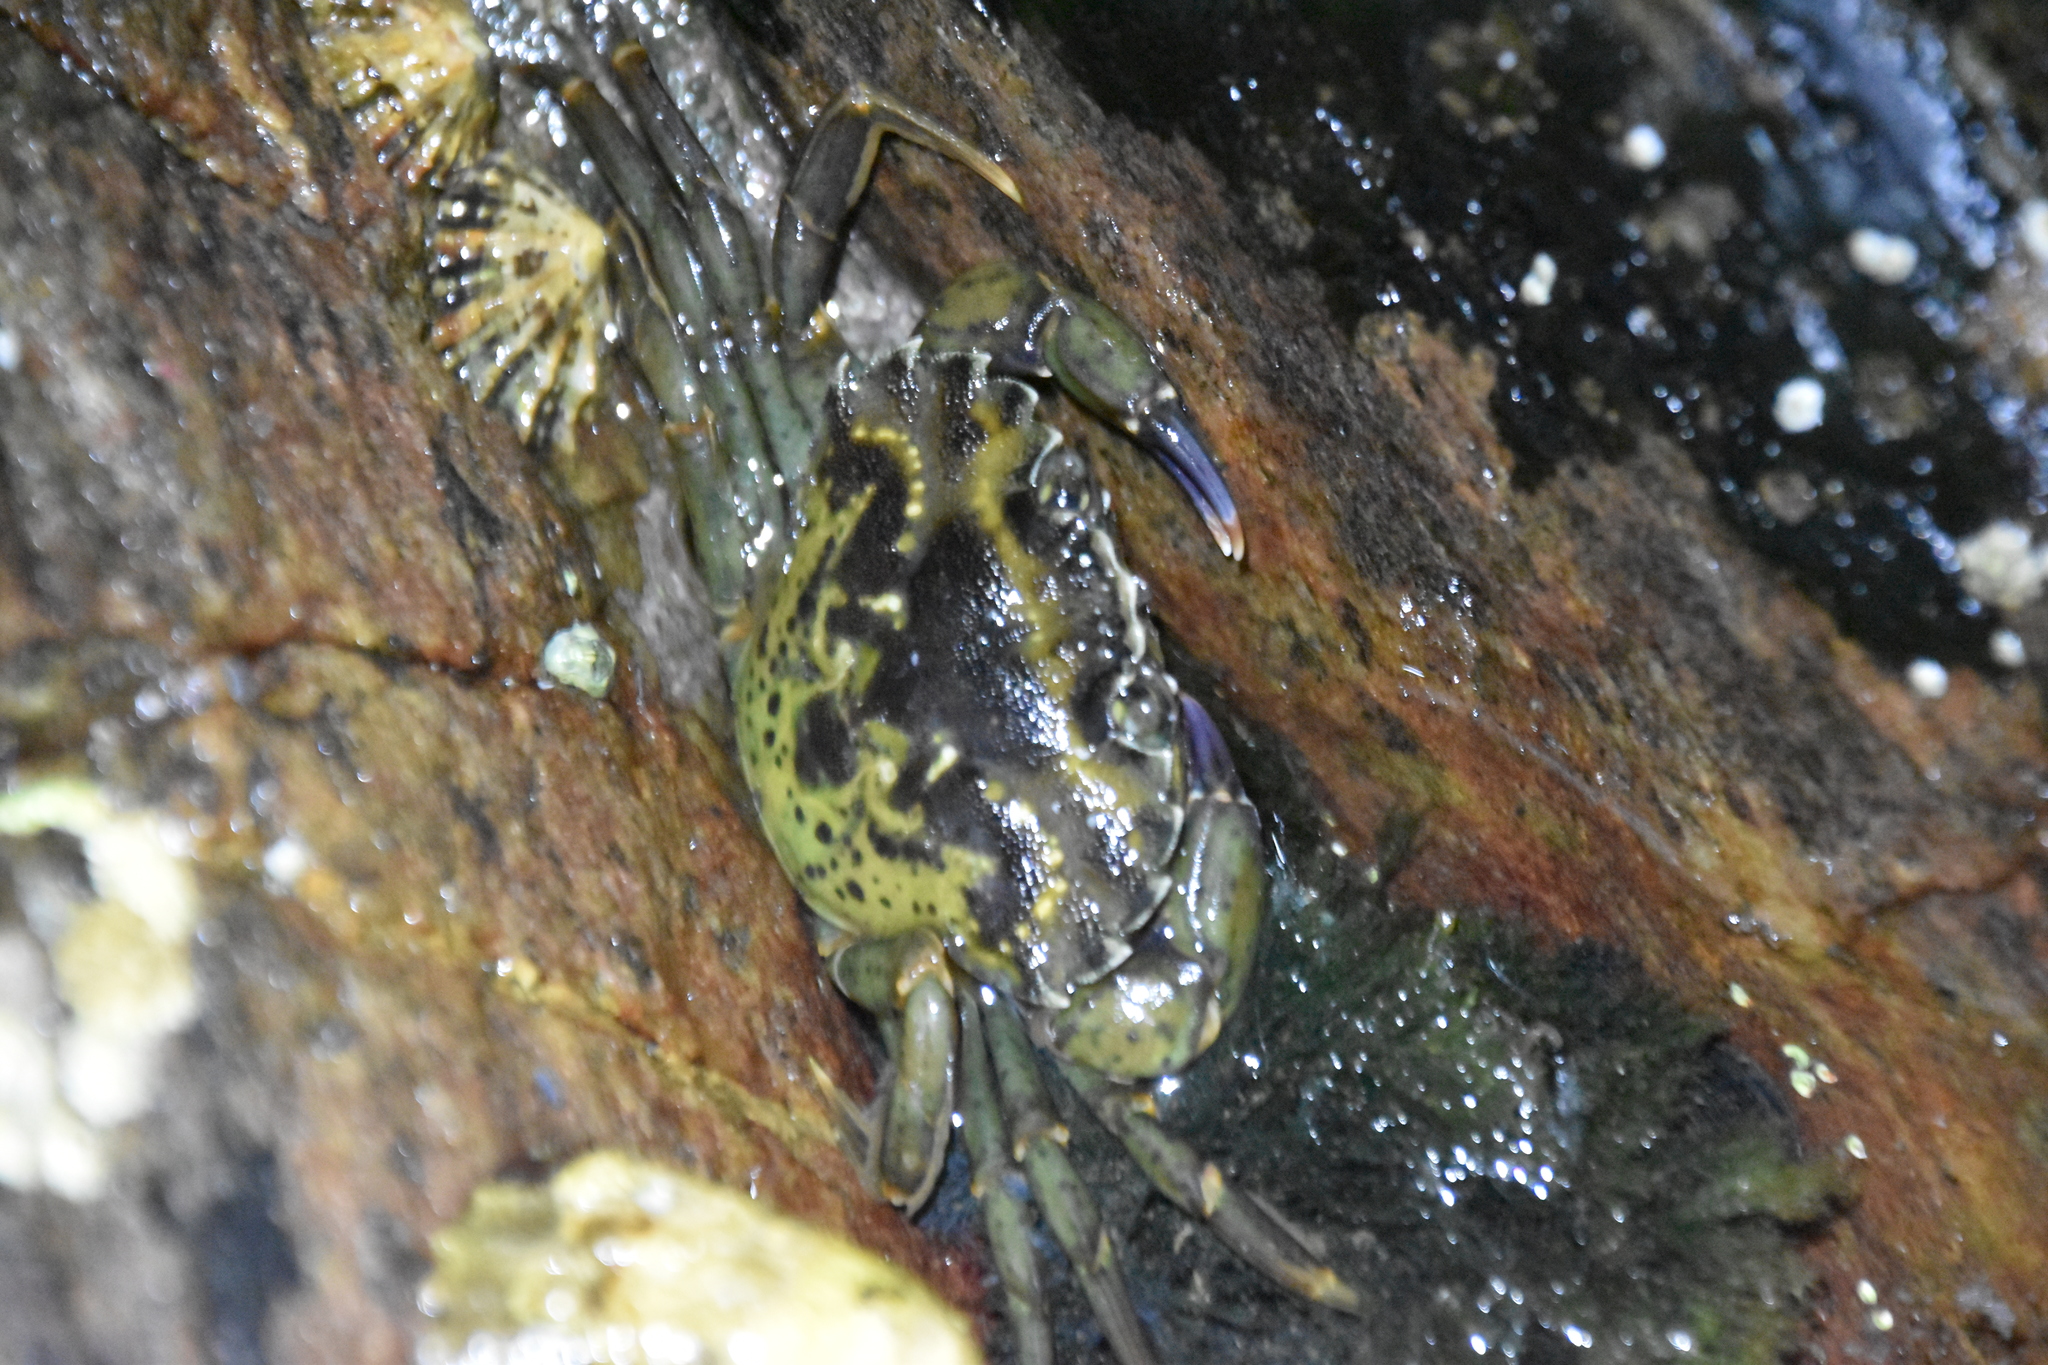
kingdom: Animalia
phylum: Arthropoda
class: Malacostraca
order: Decapoda
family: Carcinidae
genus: Carcinus
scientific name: Carcinus maenas
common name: European green crab
